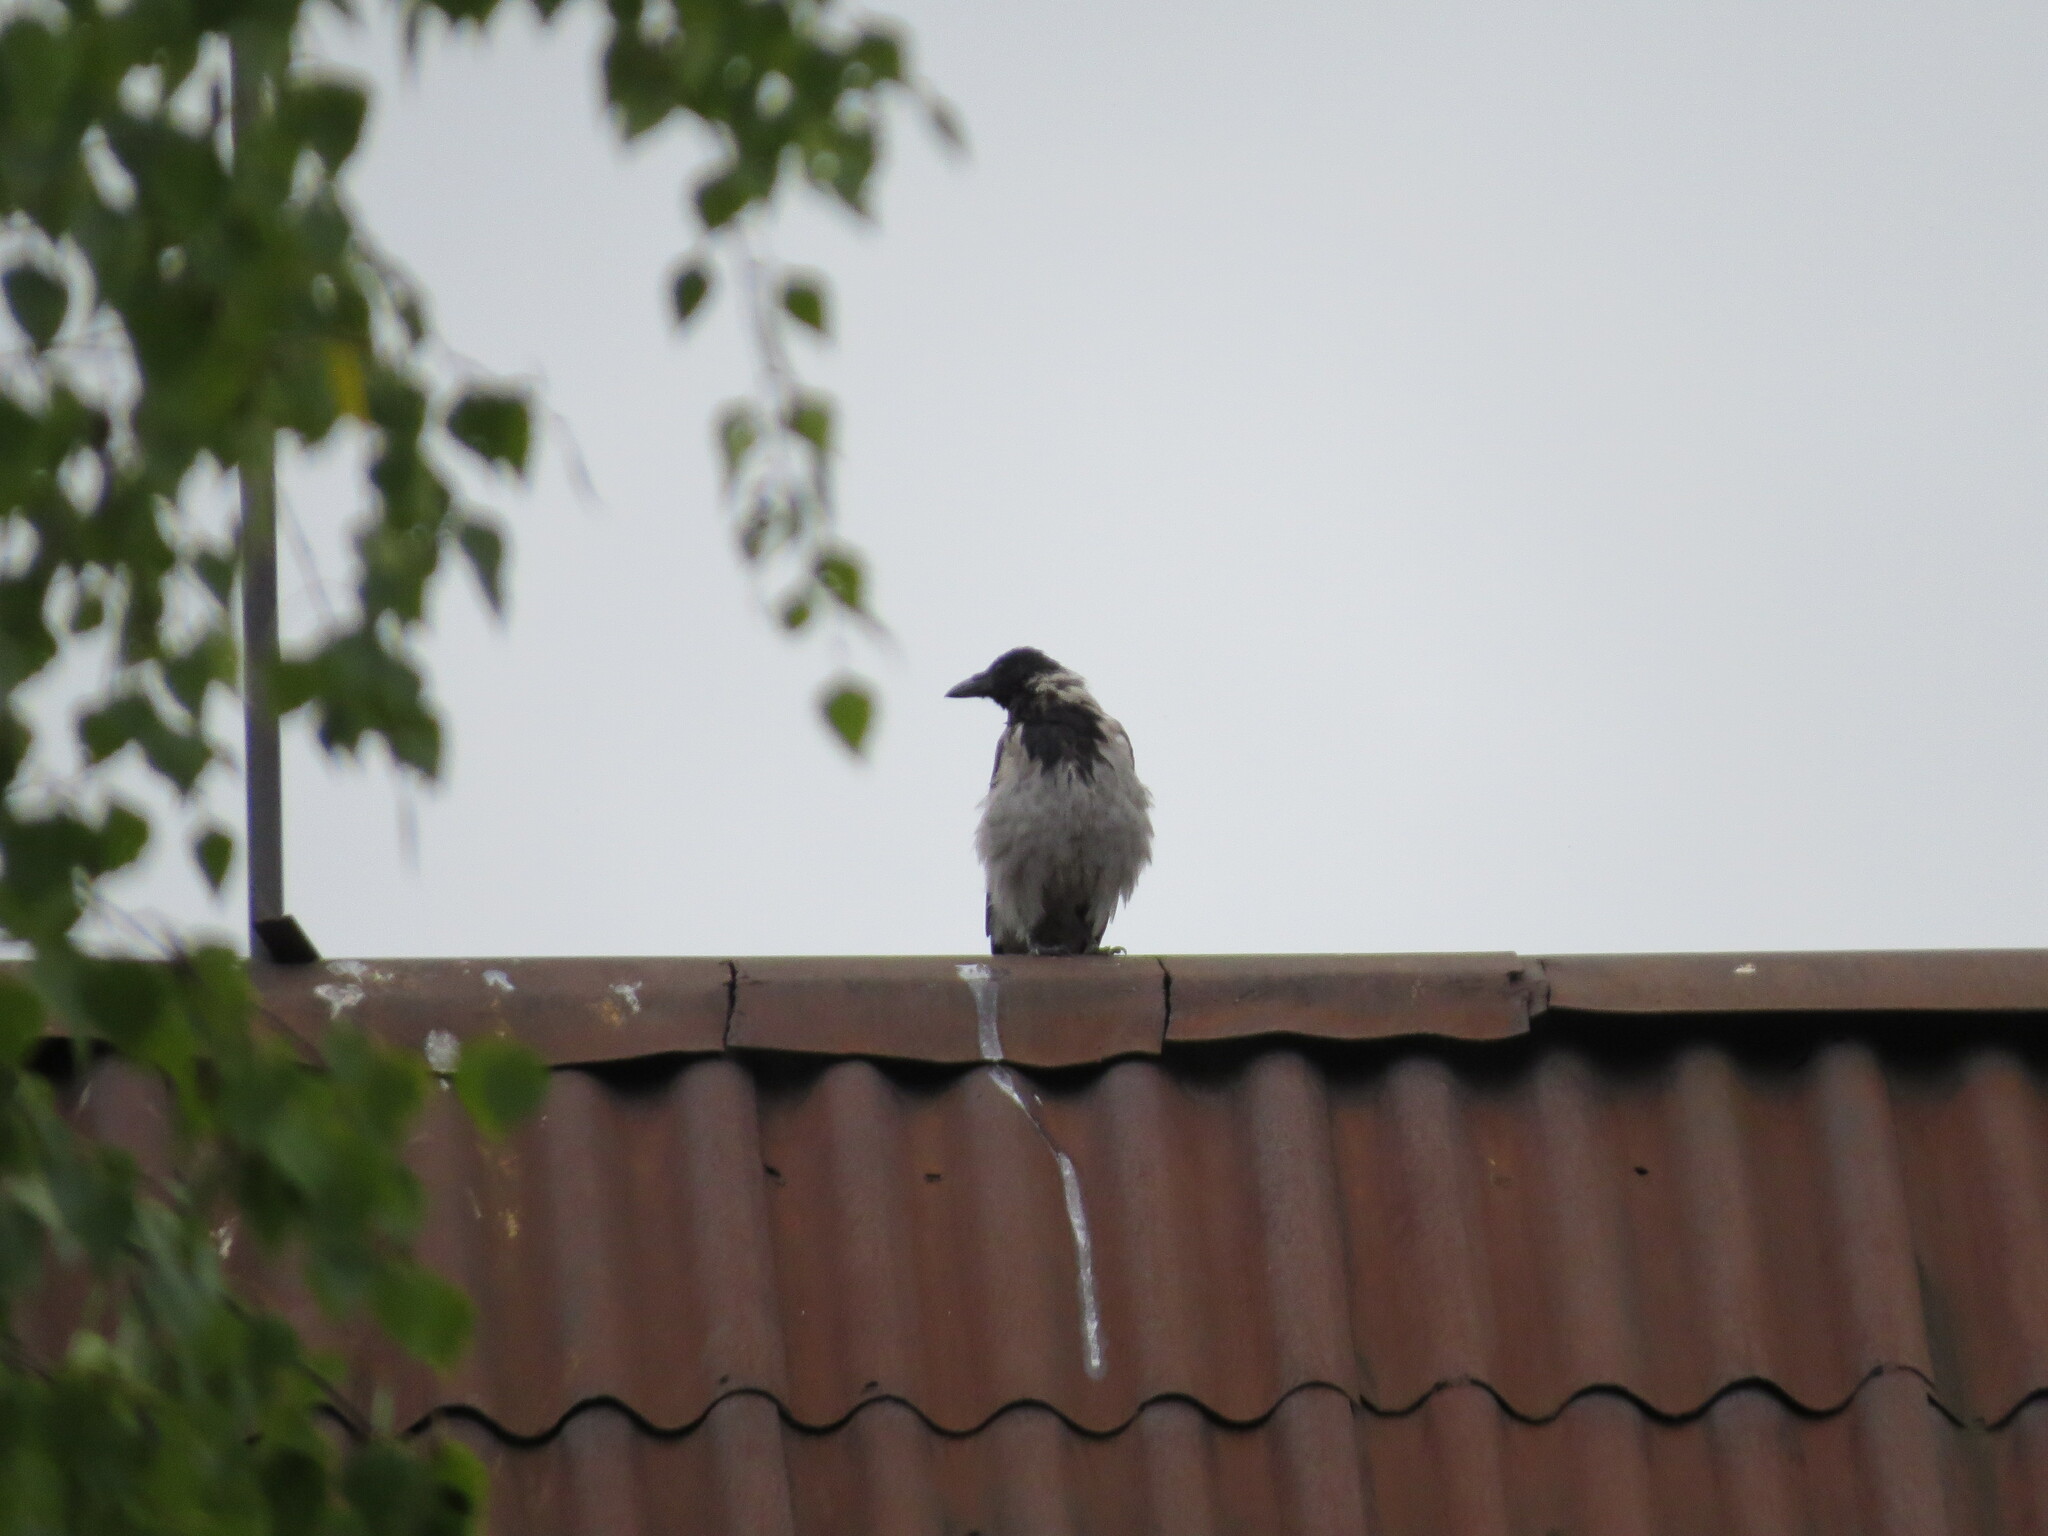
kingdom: Animalia
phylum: Chordata
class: Aves
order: Passeriformes
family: Corvidae
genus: Corvus
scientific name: Corvus cornix
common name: Hooded crow
